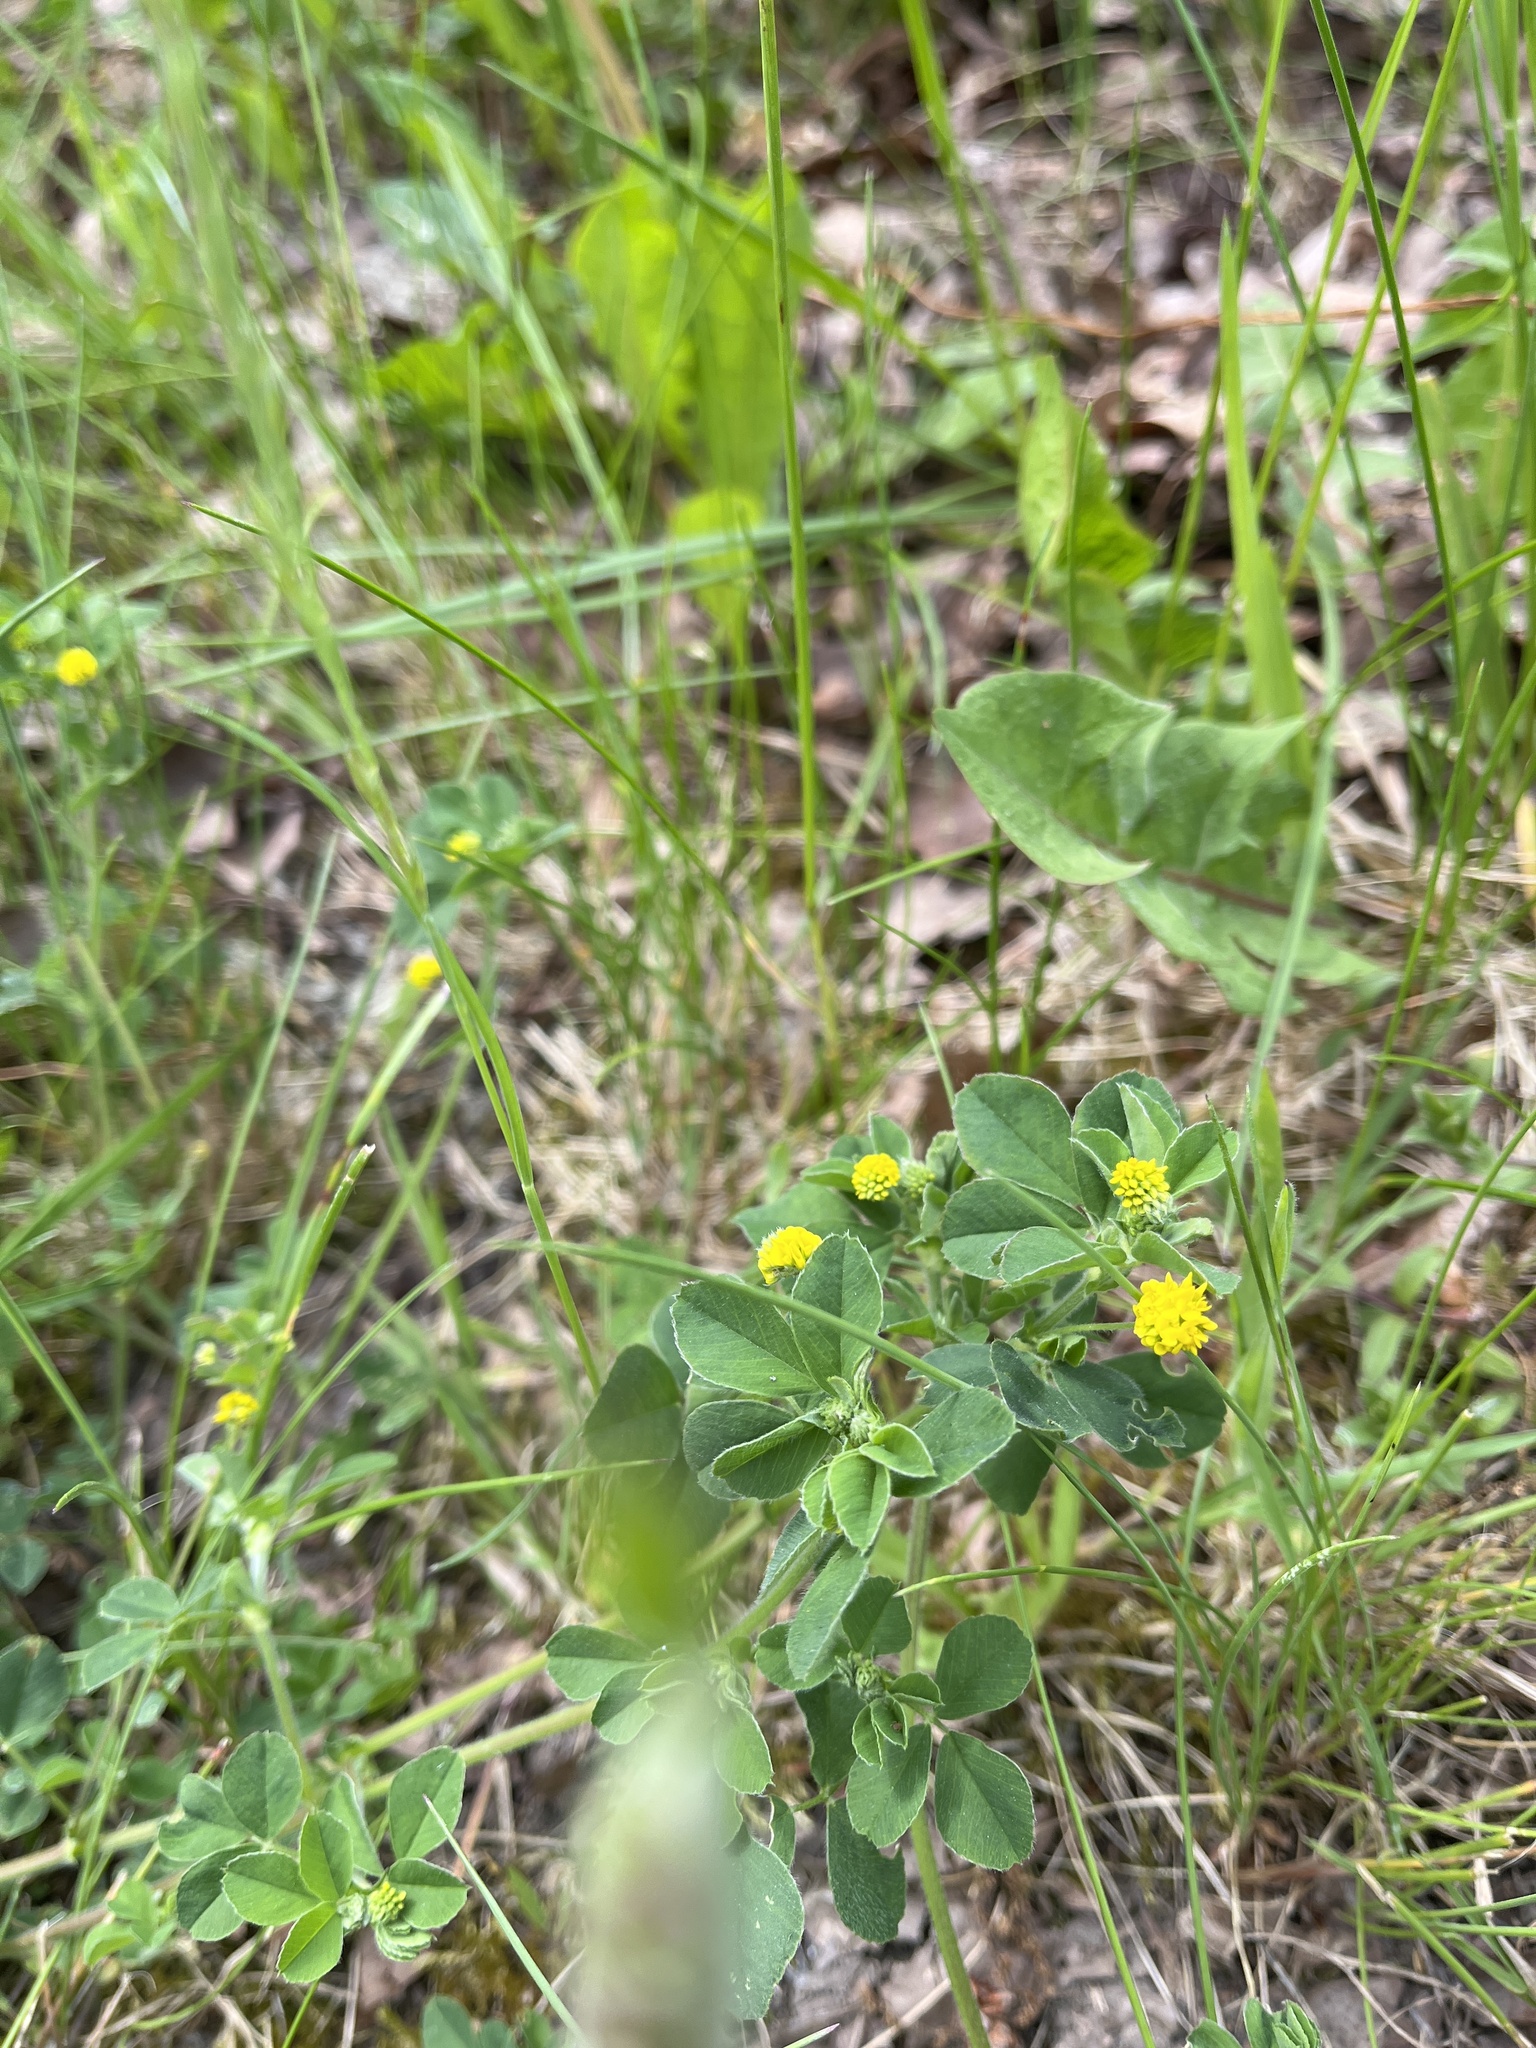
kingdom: Plantae
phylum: Tracheophyta
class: Magnoliopsida
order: Fabales
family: Fabaceae
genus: Medicago
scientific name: Medicago lupulina
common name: Black medick
